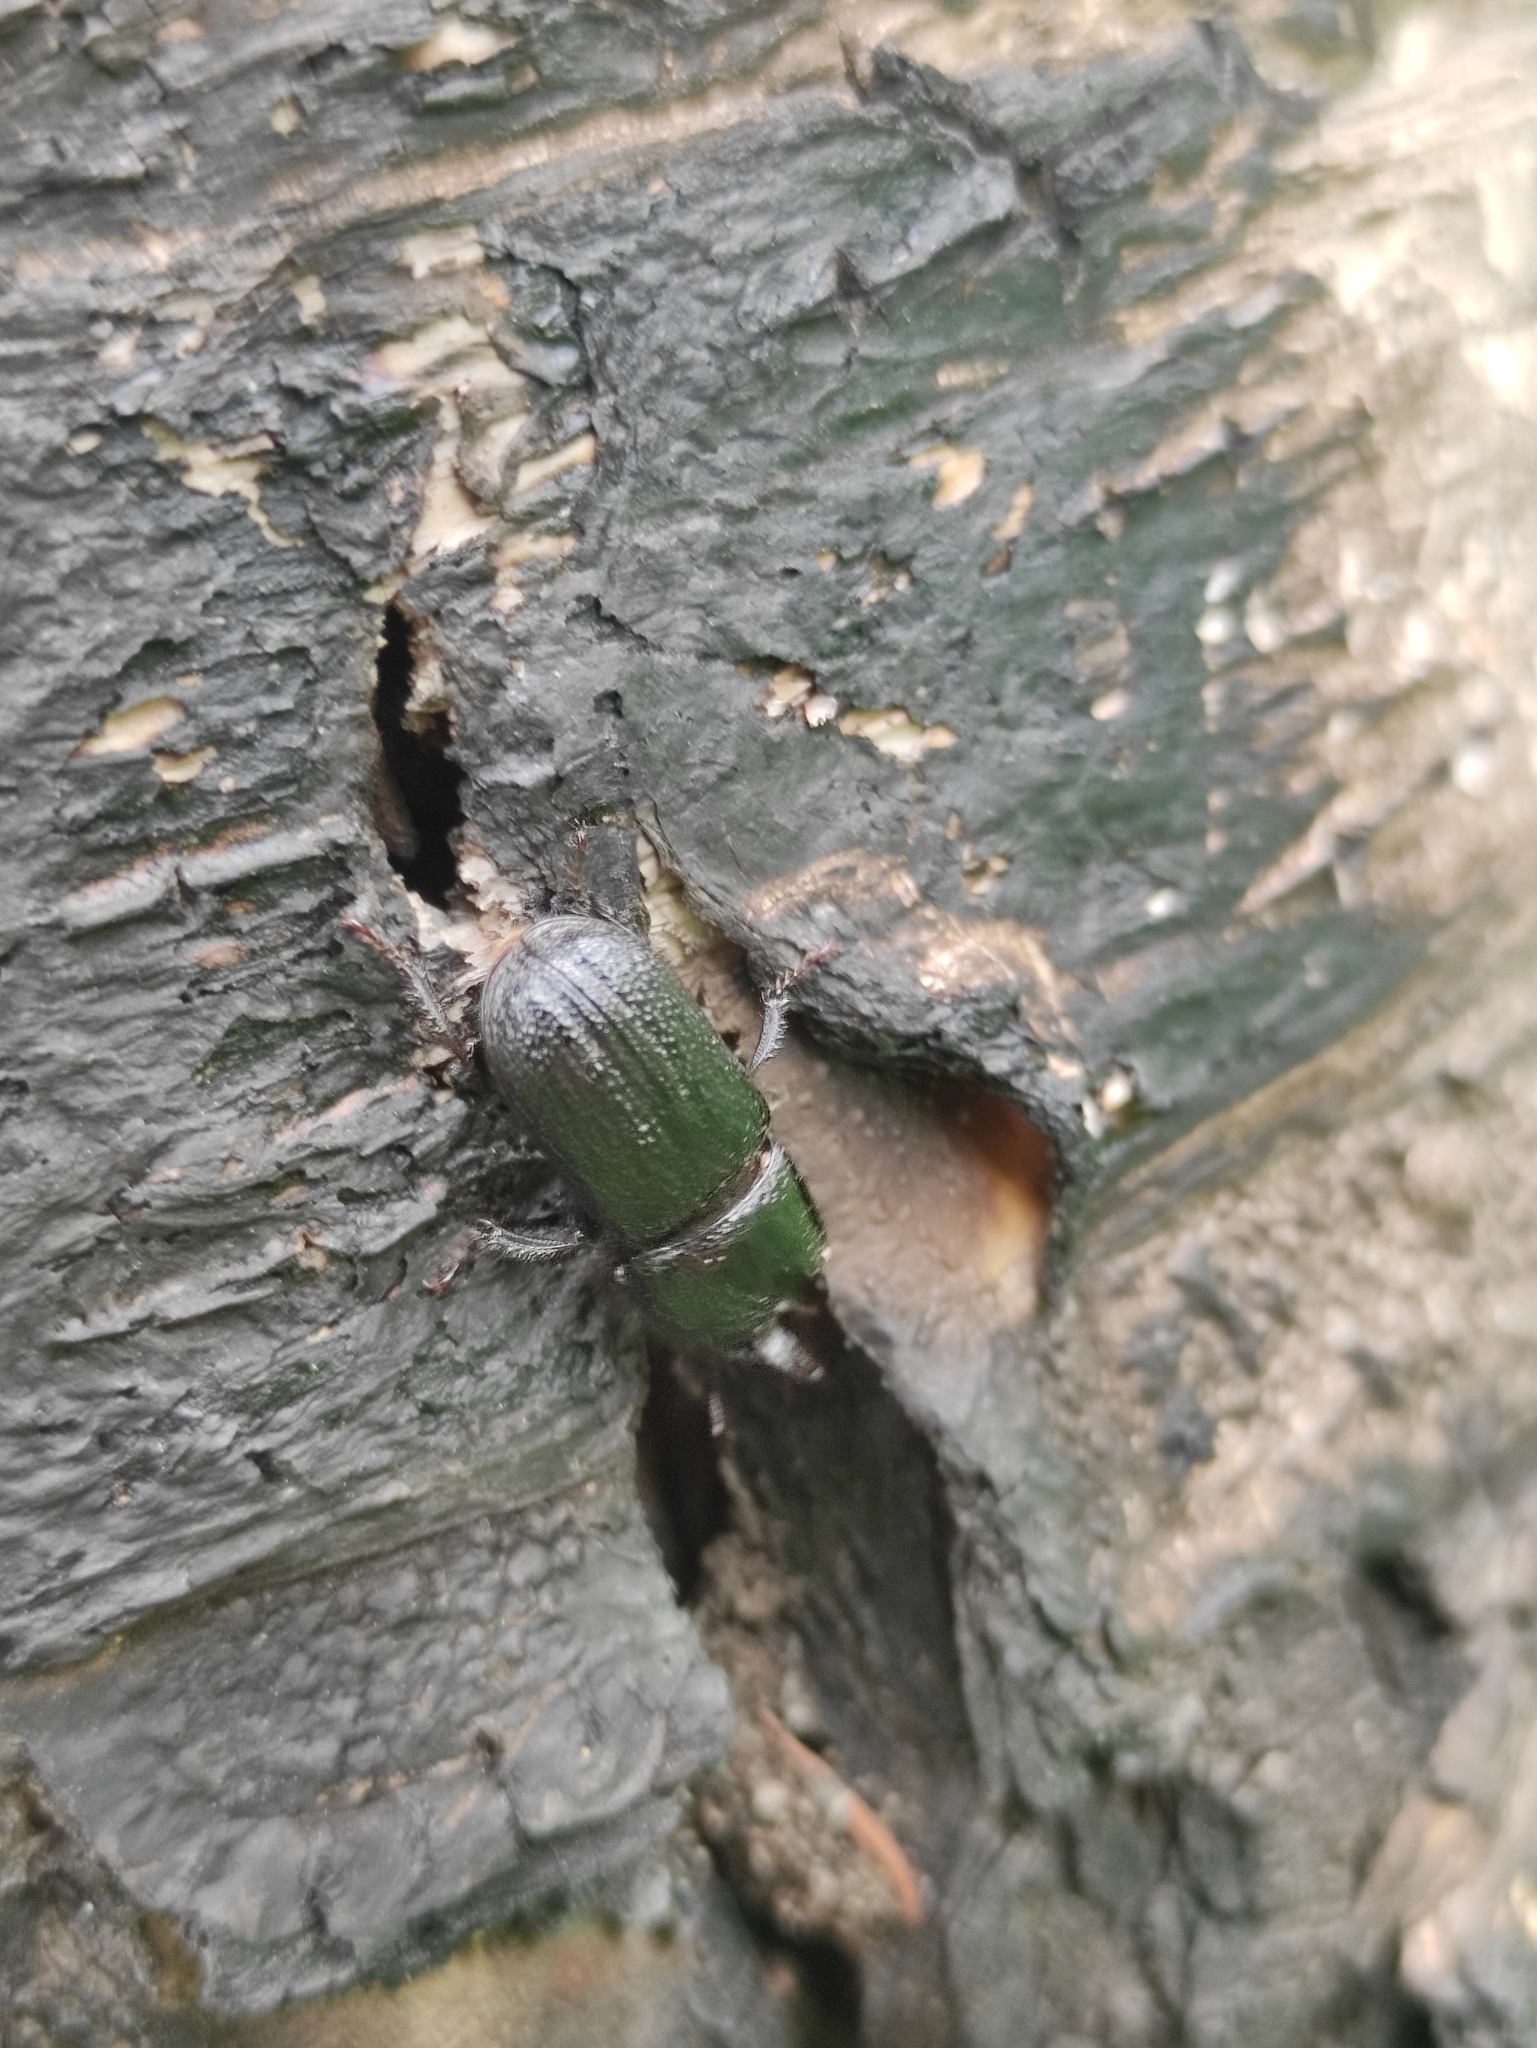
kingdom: Animalia
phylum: Arthropoda
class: Insecta
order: Coleoptera
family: Lucanidae
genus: Sinodendron
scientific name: Sinodendron cylindricum
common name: Rhinoceros beetle
